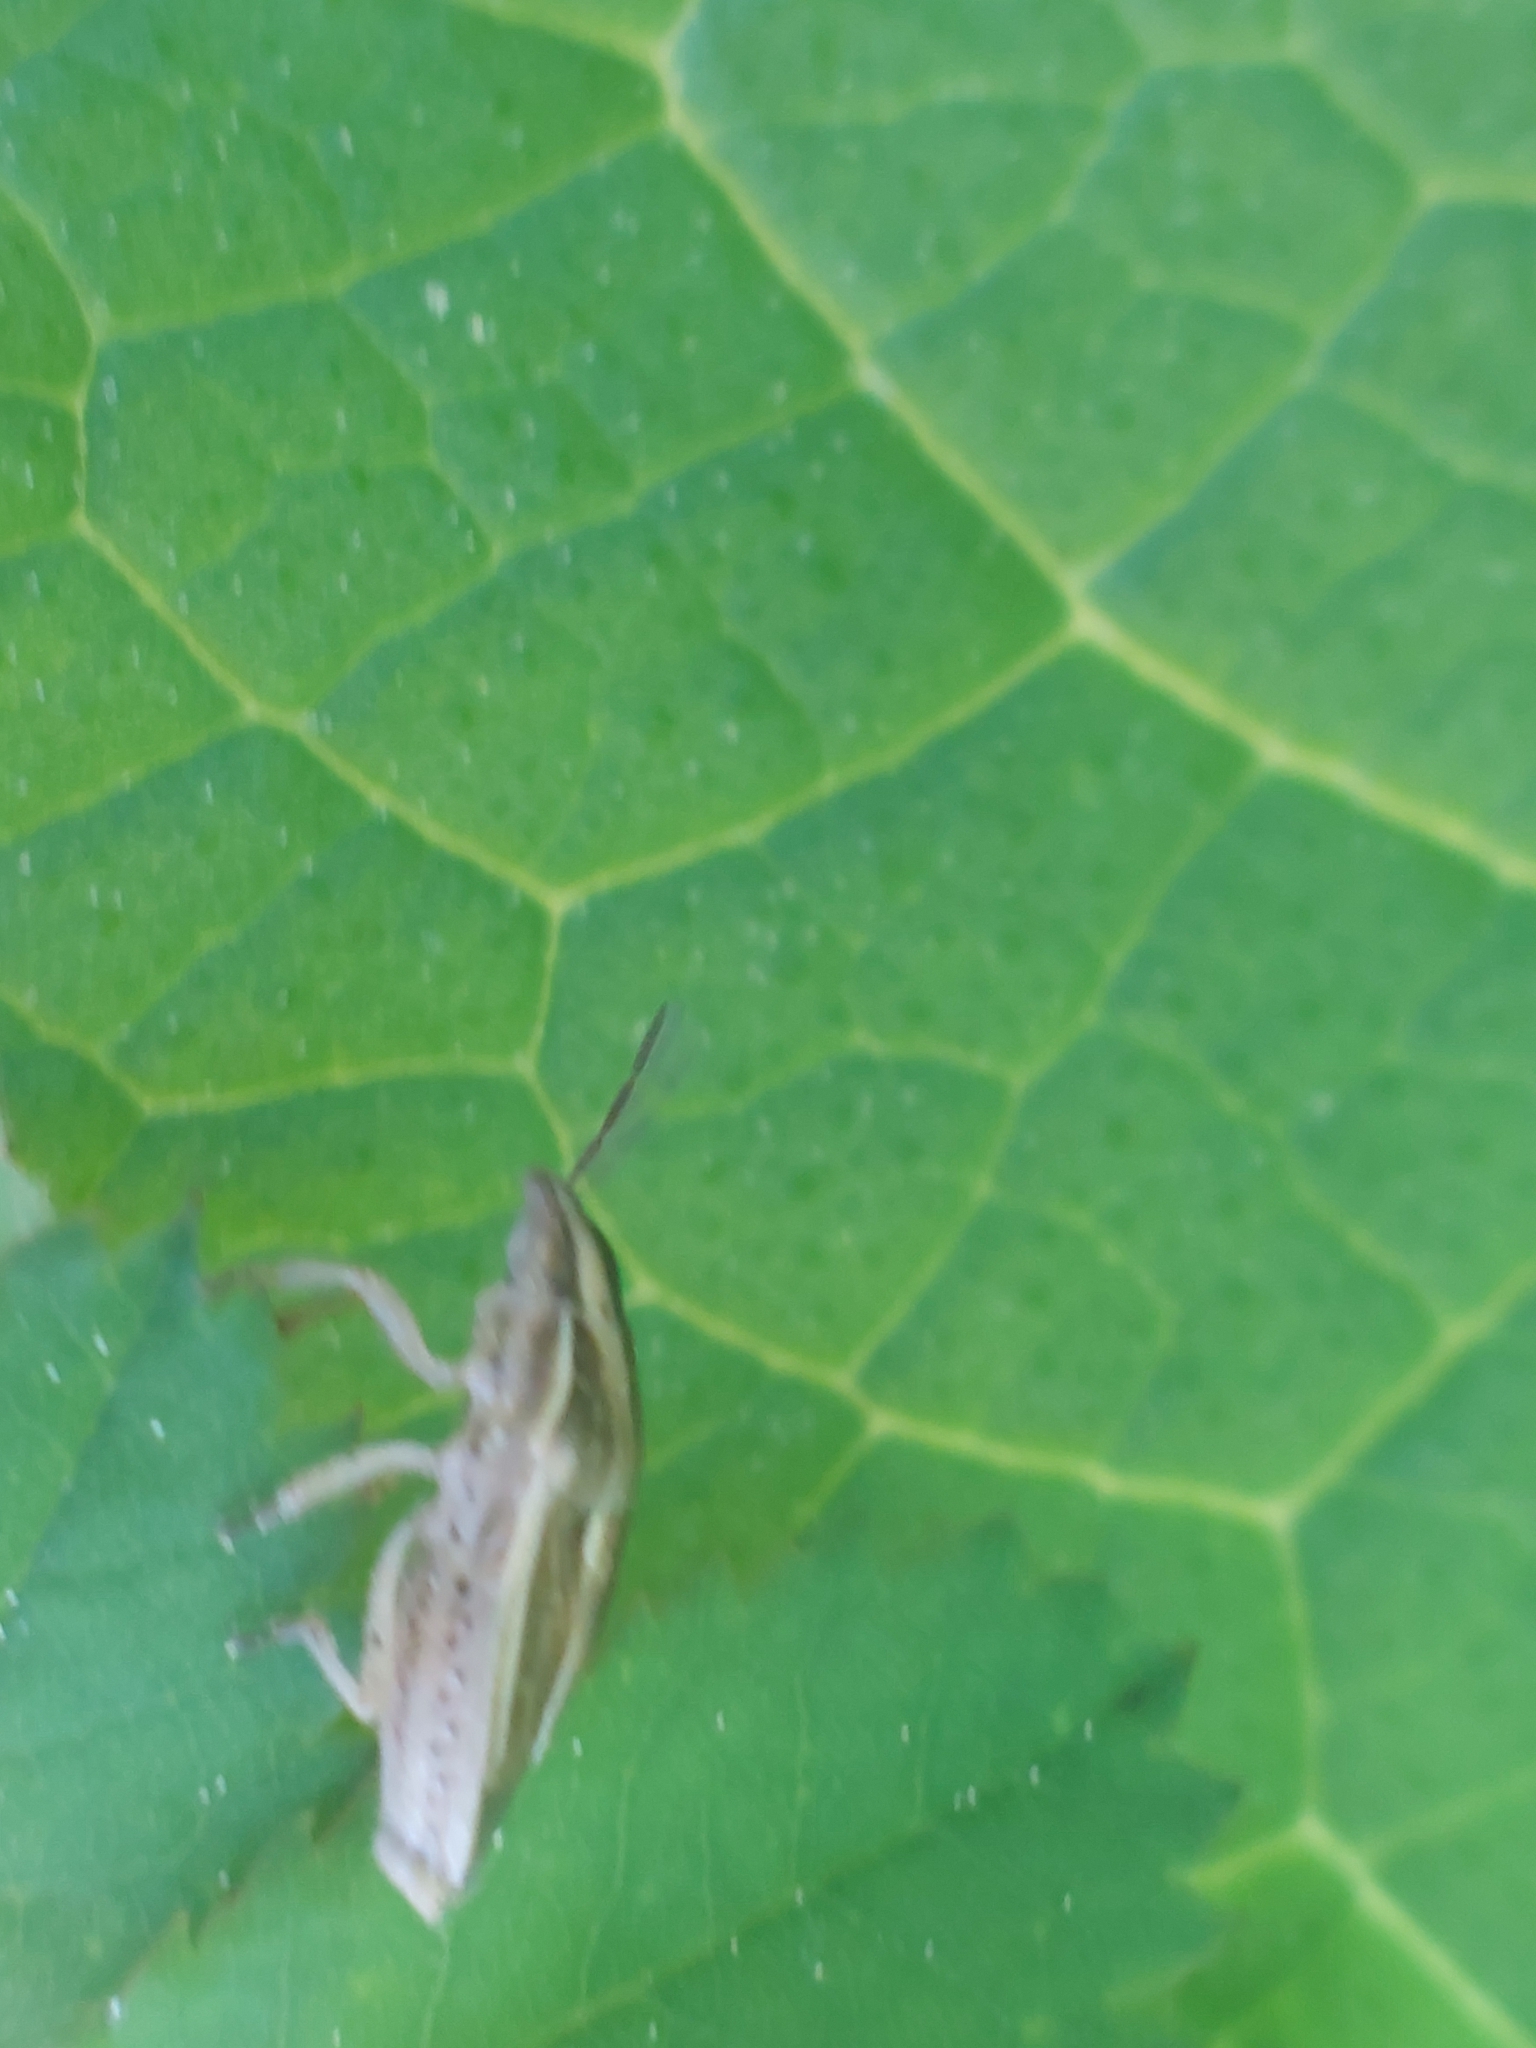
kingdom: Animalia
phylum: Arthropoda
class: Insecta
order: Hemiptera
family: Pentatomidae
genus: Aelia
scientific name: Aelia acuminata
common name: Bishop's mitre
